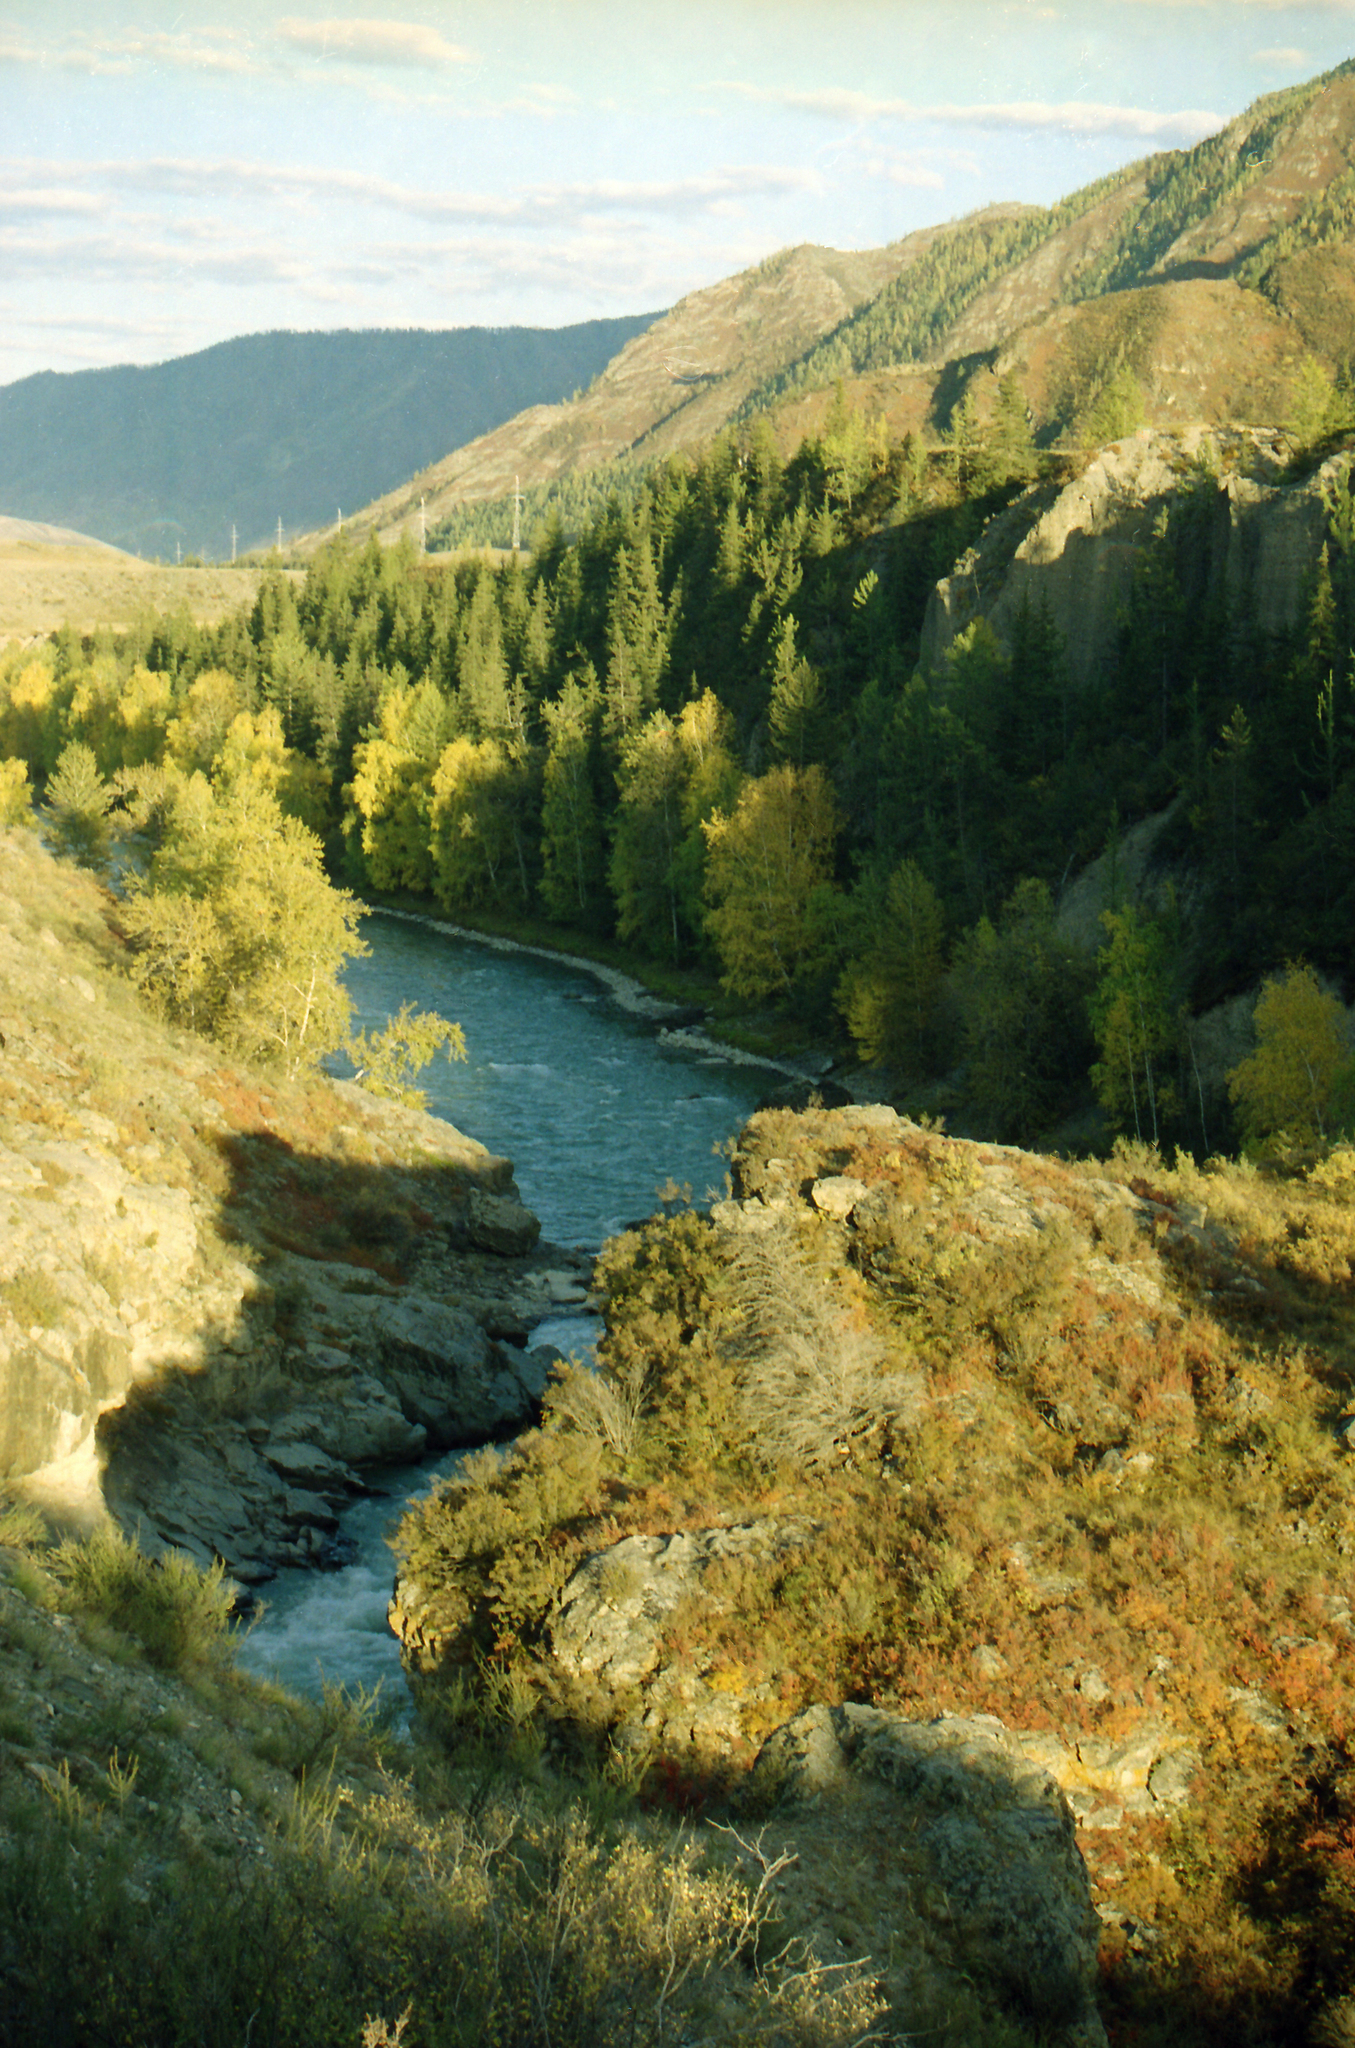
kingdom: Plantae
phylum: Tracheophyta
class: Pinopsida
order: Pinales
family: Pinaceae
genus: Larix
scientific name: Larix sibirica
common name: Siberian larch
